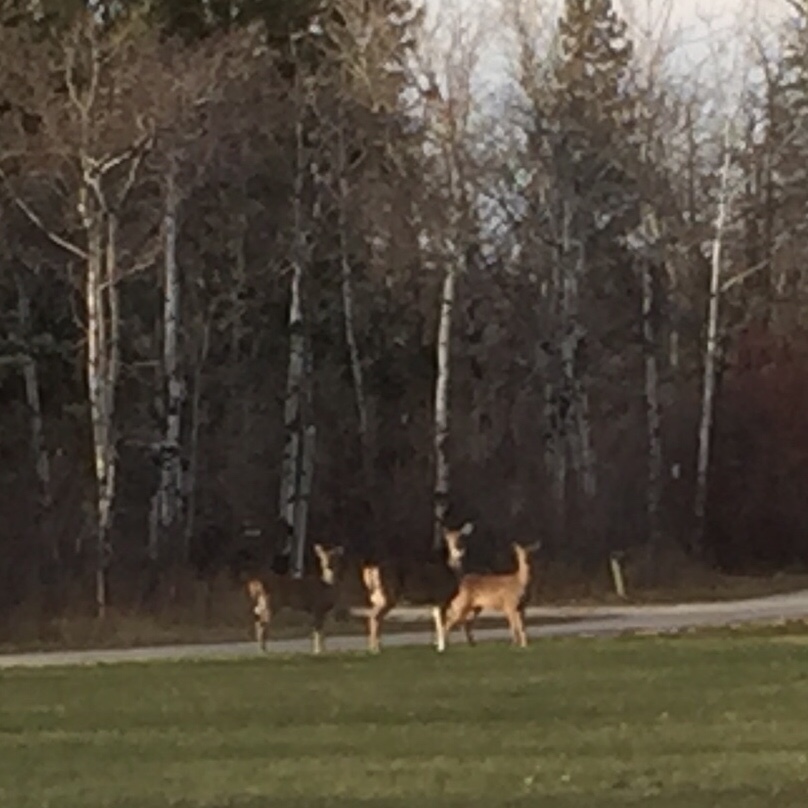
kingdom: Animalia
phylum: Chordata
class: Mammalia
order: Artiodactyla
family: Cervidae
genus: Odocoileus
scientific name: Odocoileus virginianus
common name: White-tailed deer
